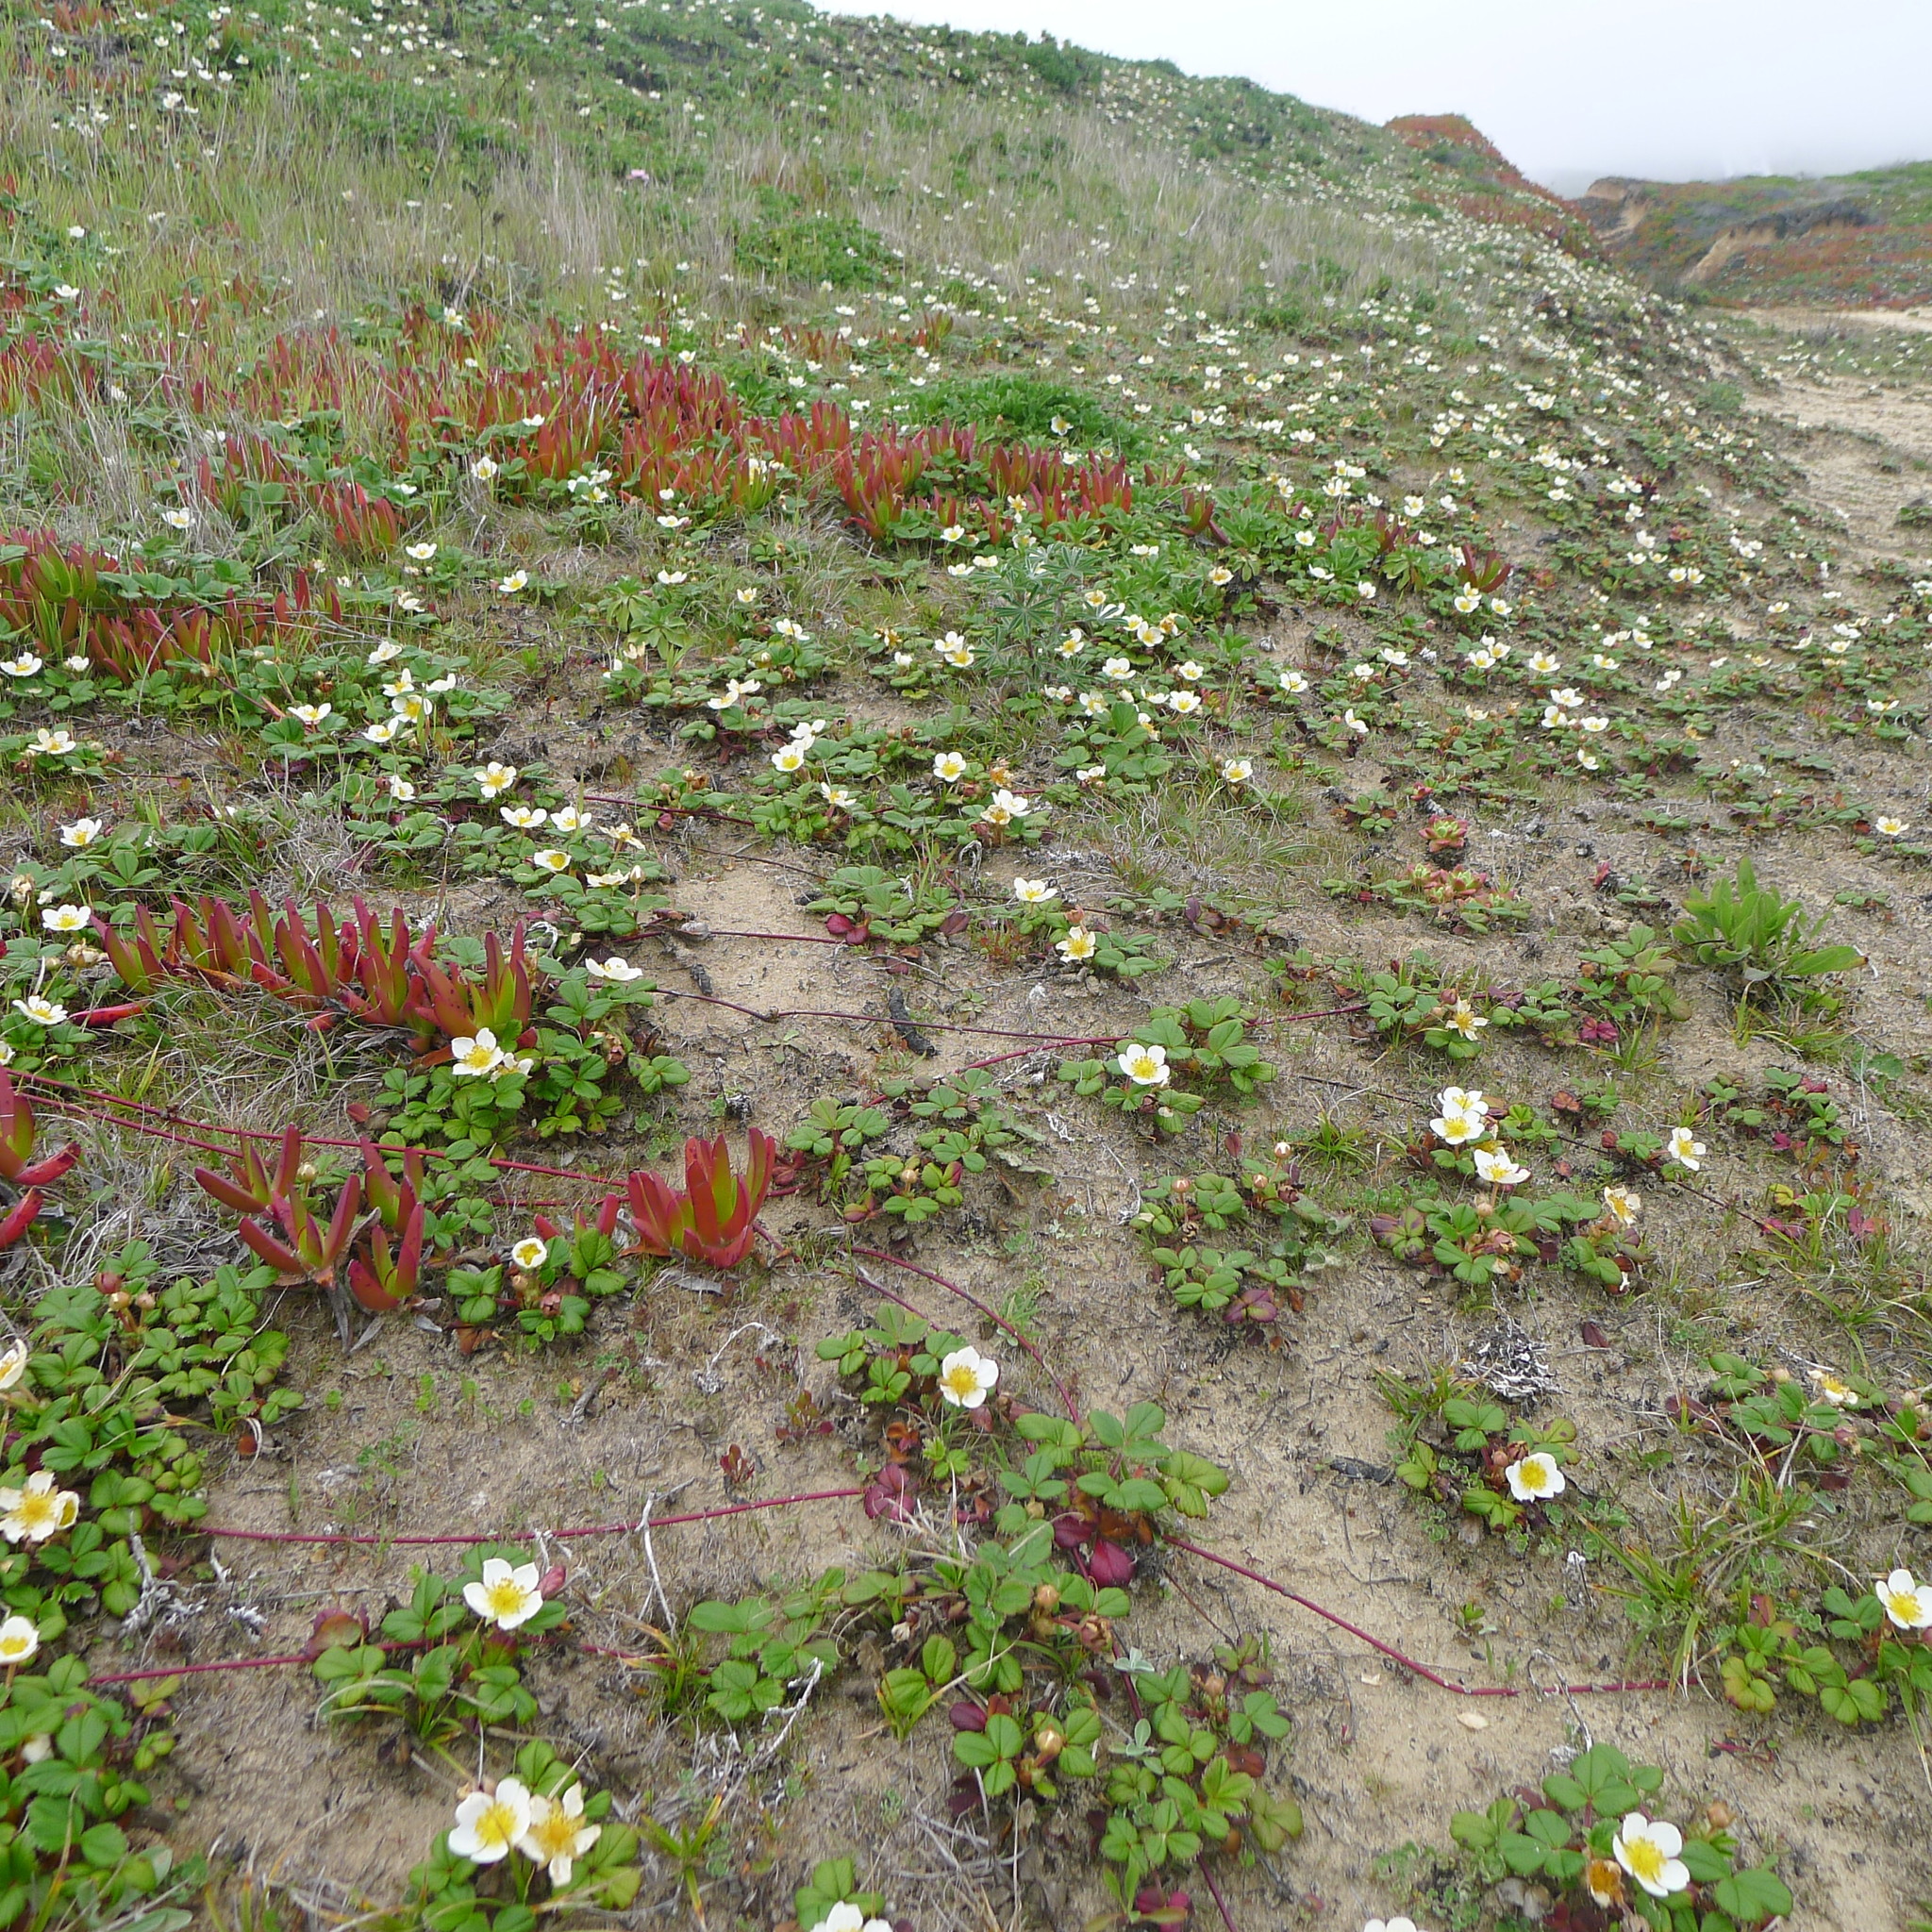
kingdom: Plantae
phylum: Tracheophyta
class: Magnoliopsida
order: Rosales
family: Rosaceae
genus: Fragaria
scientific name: Fragaria chiloensis
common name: Beach strawberry
